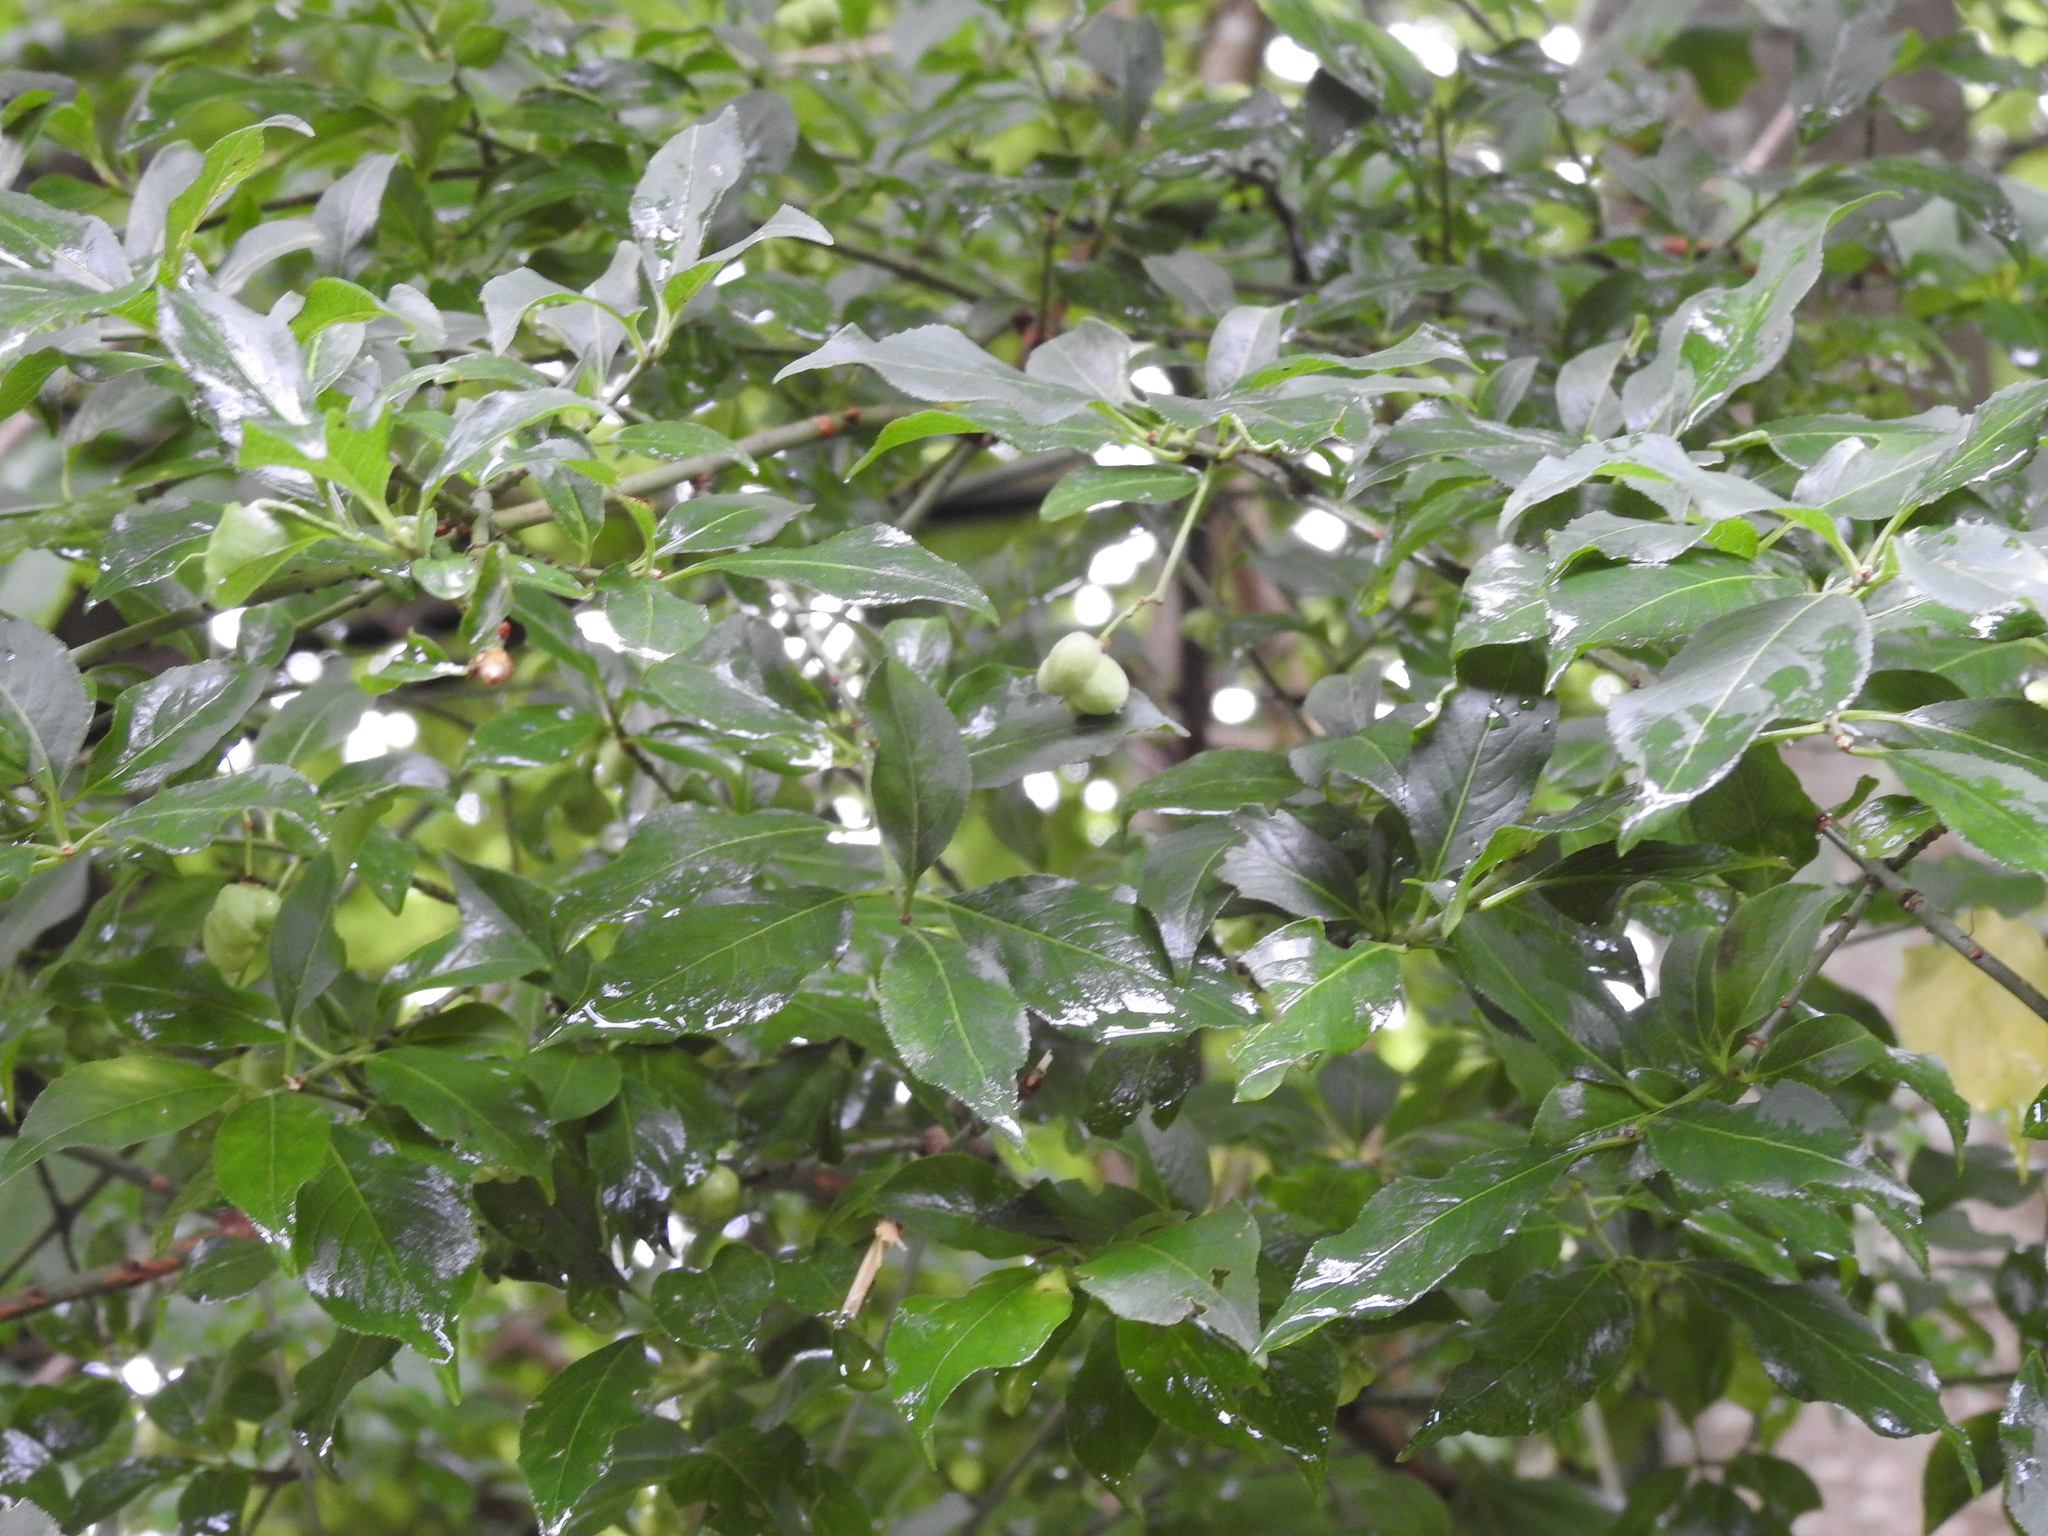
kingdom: Plantae
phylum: Tracheophyta
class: Magnoliopsida
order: Celastrales
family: Celastraceae
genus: Euonymus
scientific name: Euonymus europaeus
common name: Spindle
